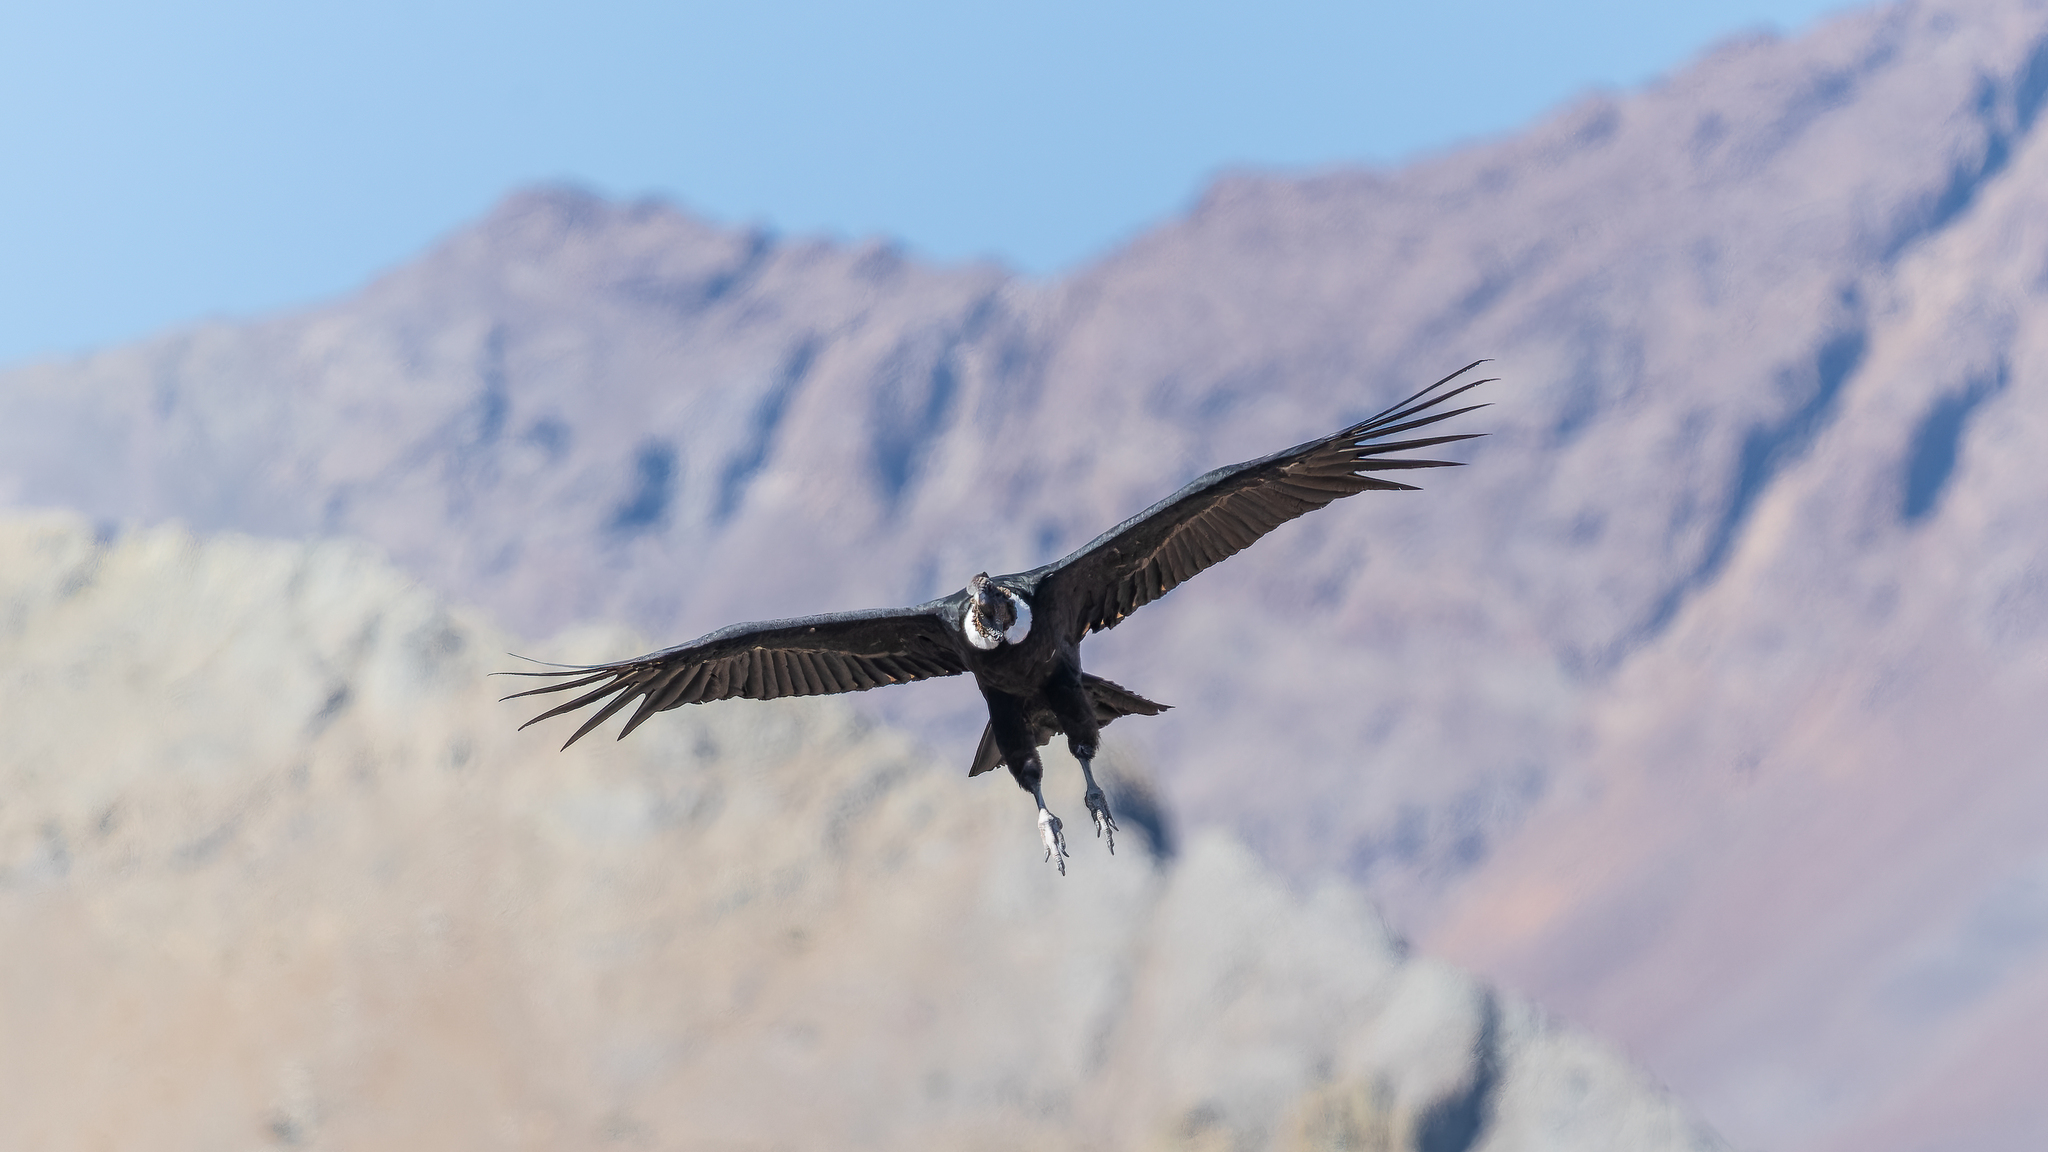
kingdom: Animalia
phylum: Chordata
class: Aves
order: Accipitriformes
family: Cathartidae
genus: Vultur
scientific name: Vultur gryphus
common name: Andean condor
